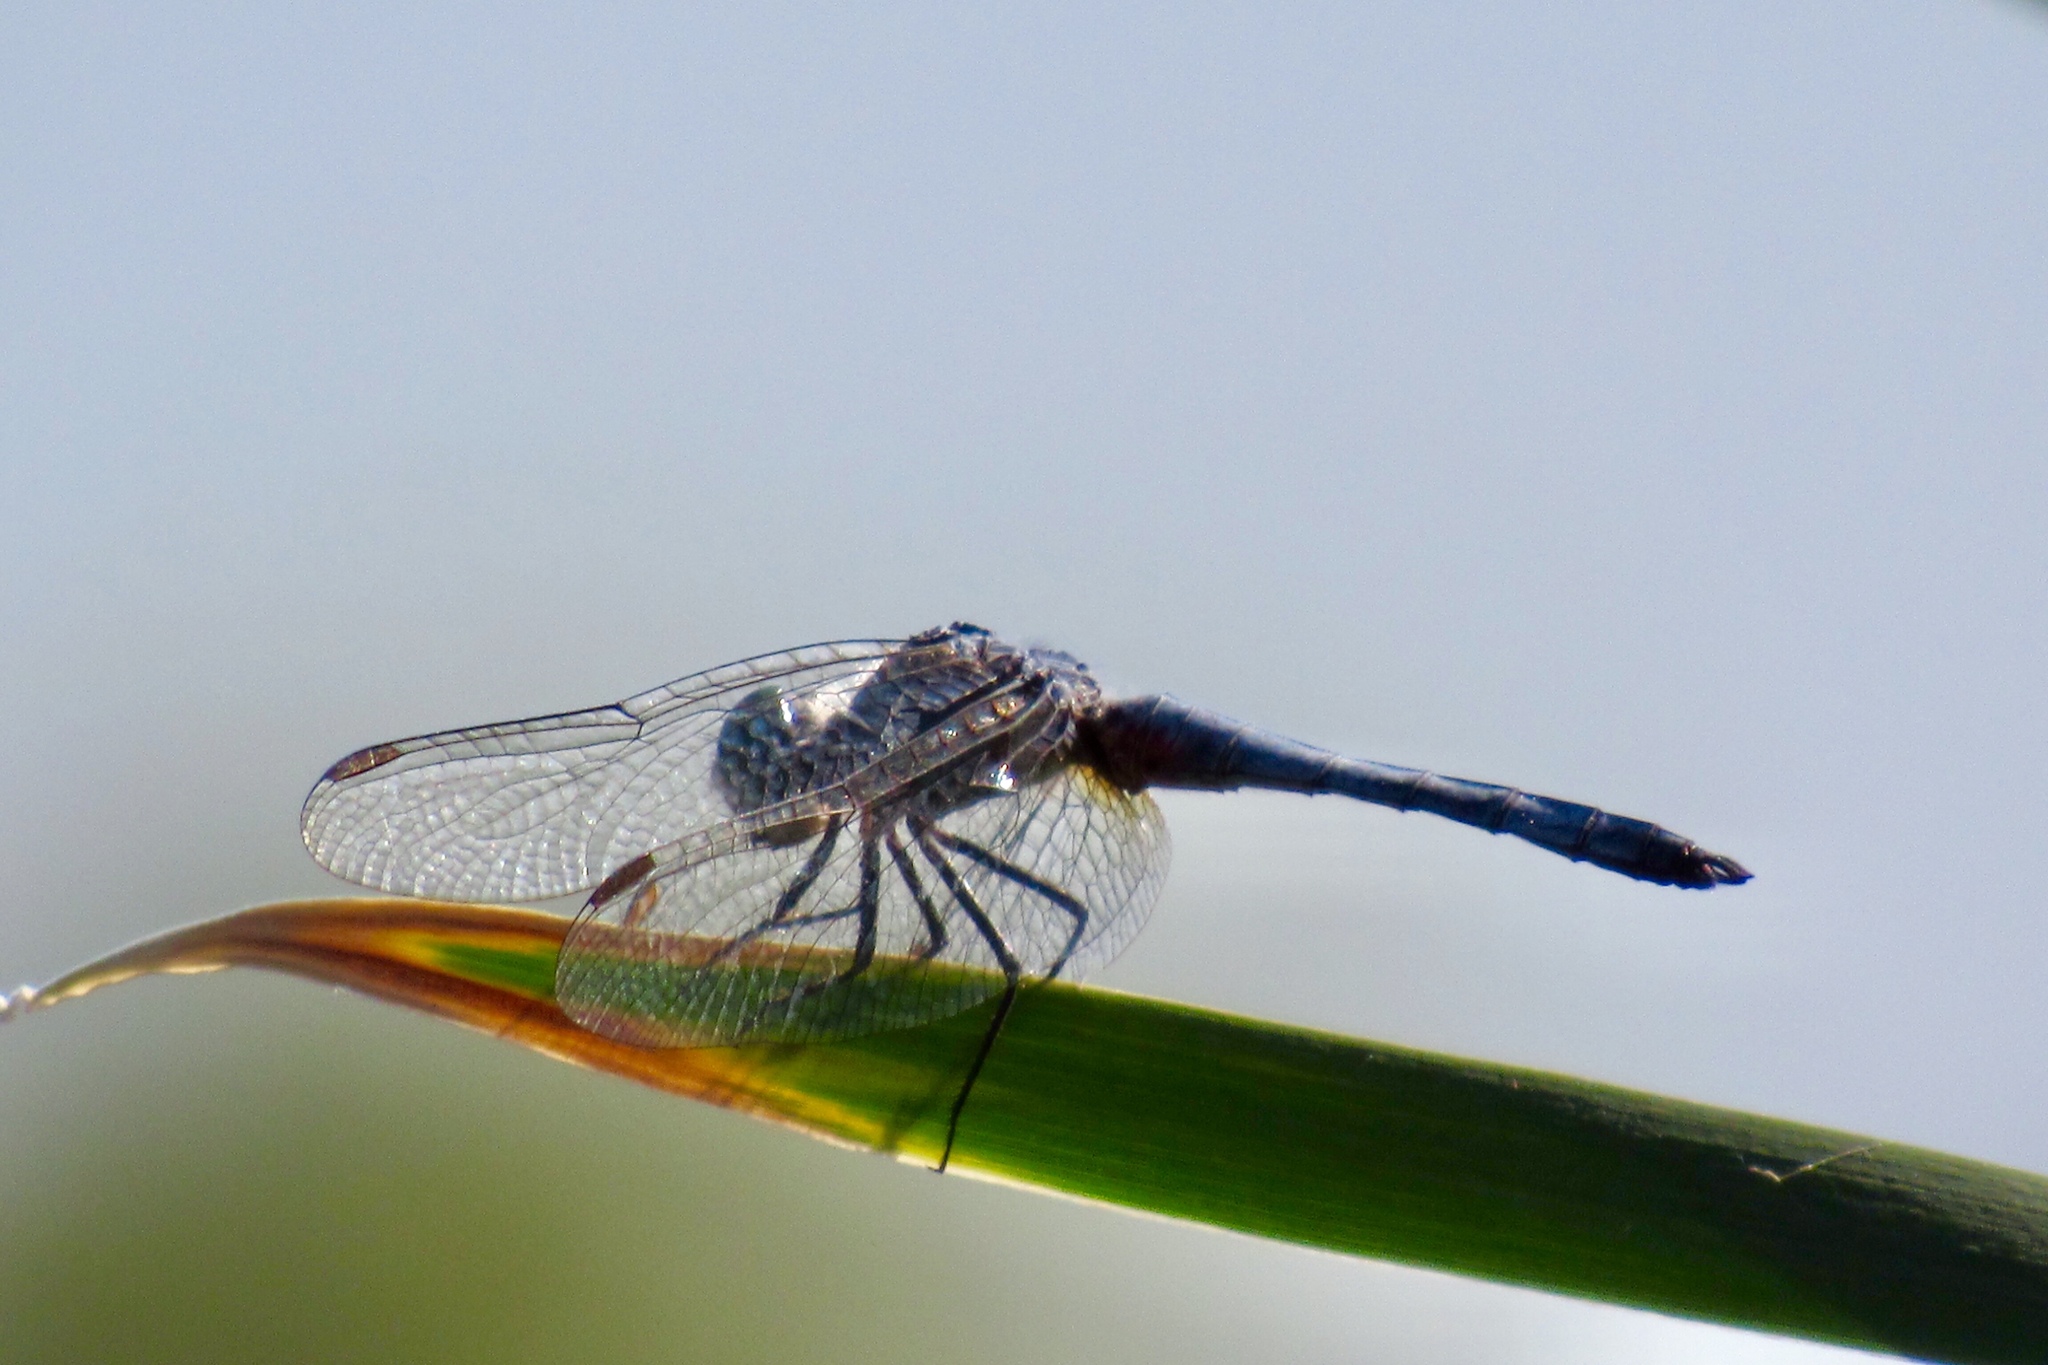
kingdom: Animalia
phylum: Arthropoda
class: Insecta
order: Odonata
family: Libellulidae
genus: Pachydiplax
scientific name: Pachydiplax longipennis
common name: Blue dasher
